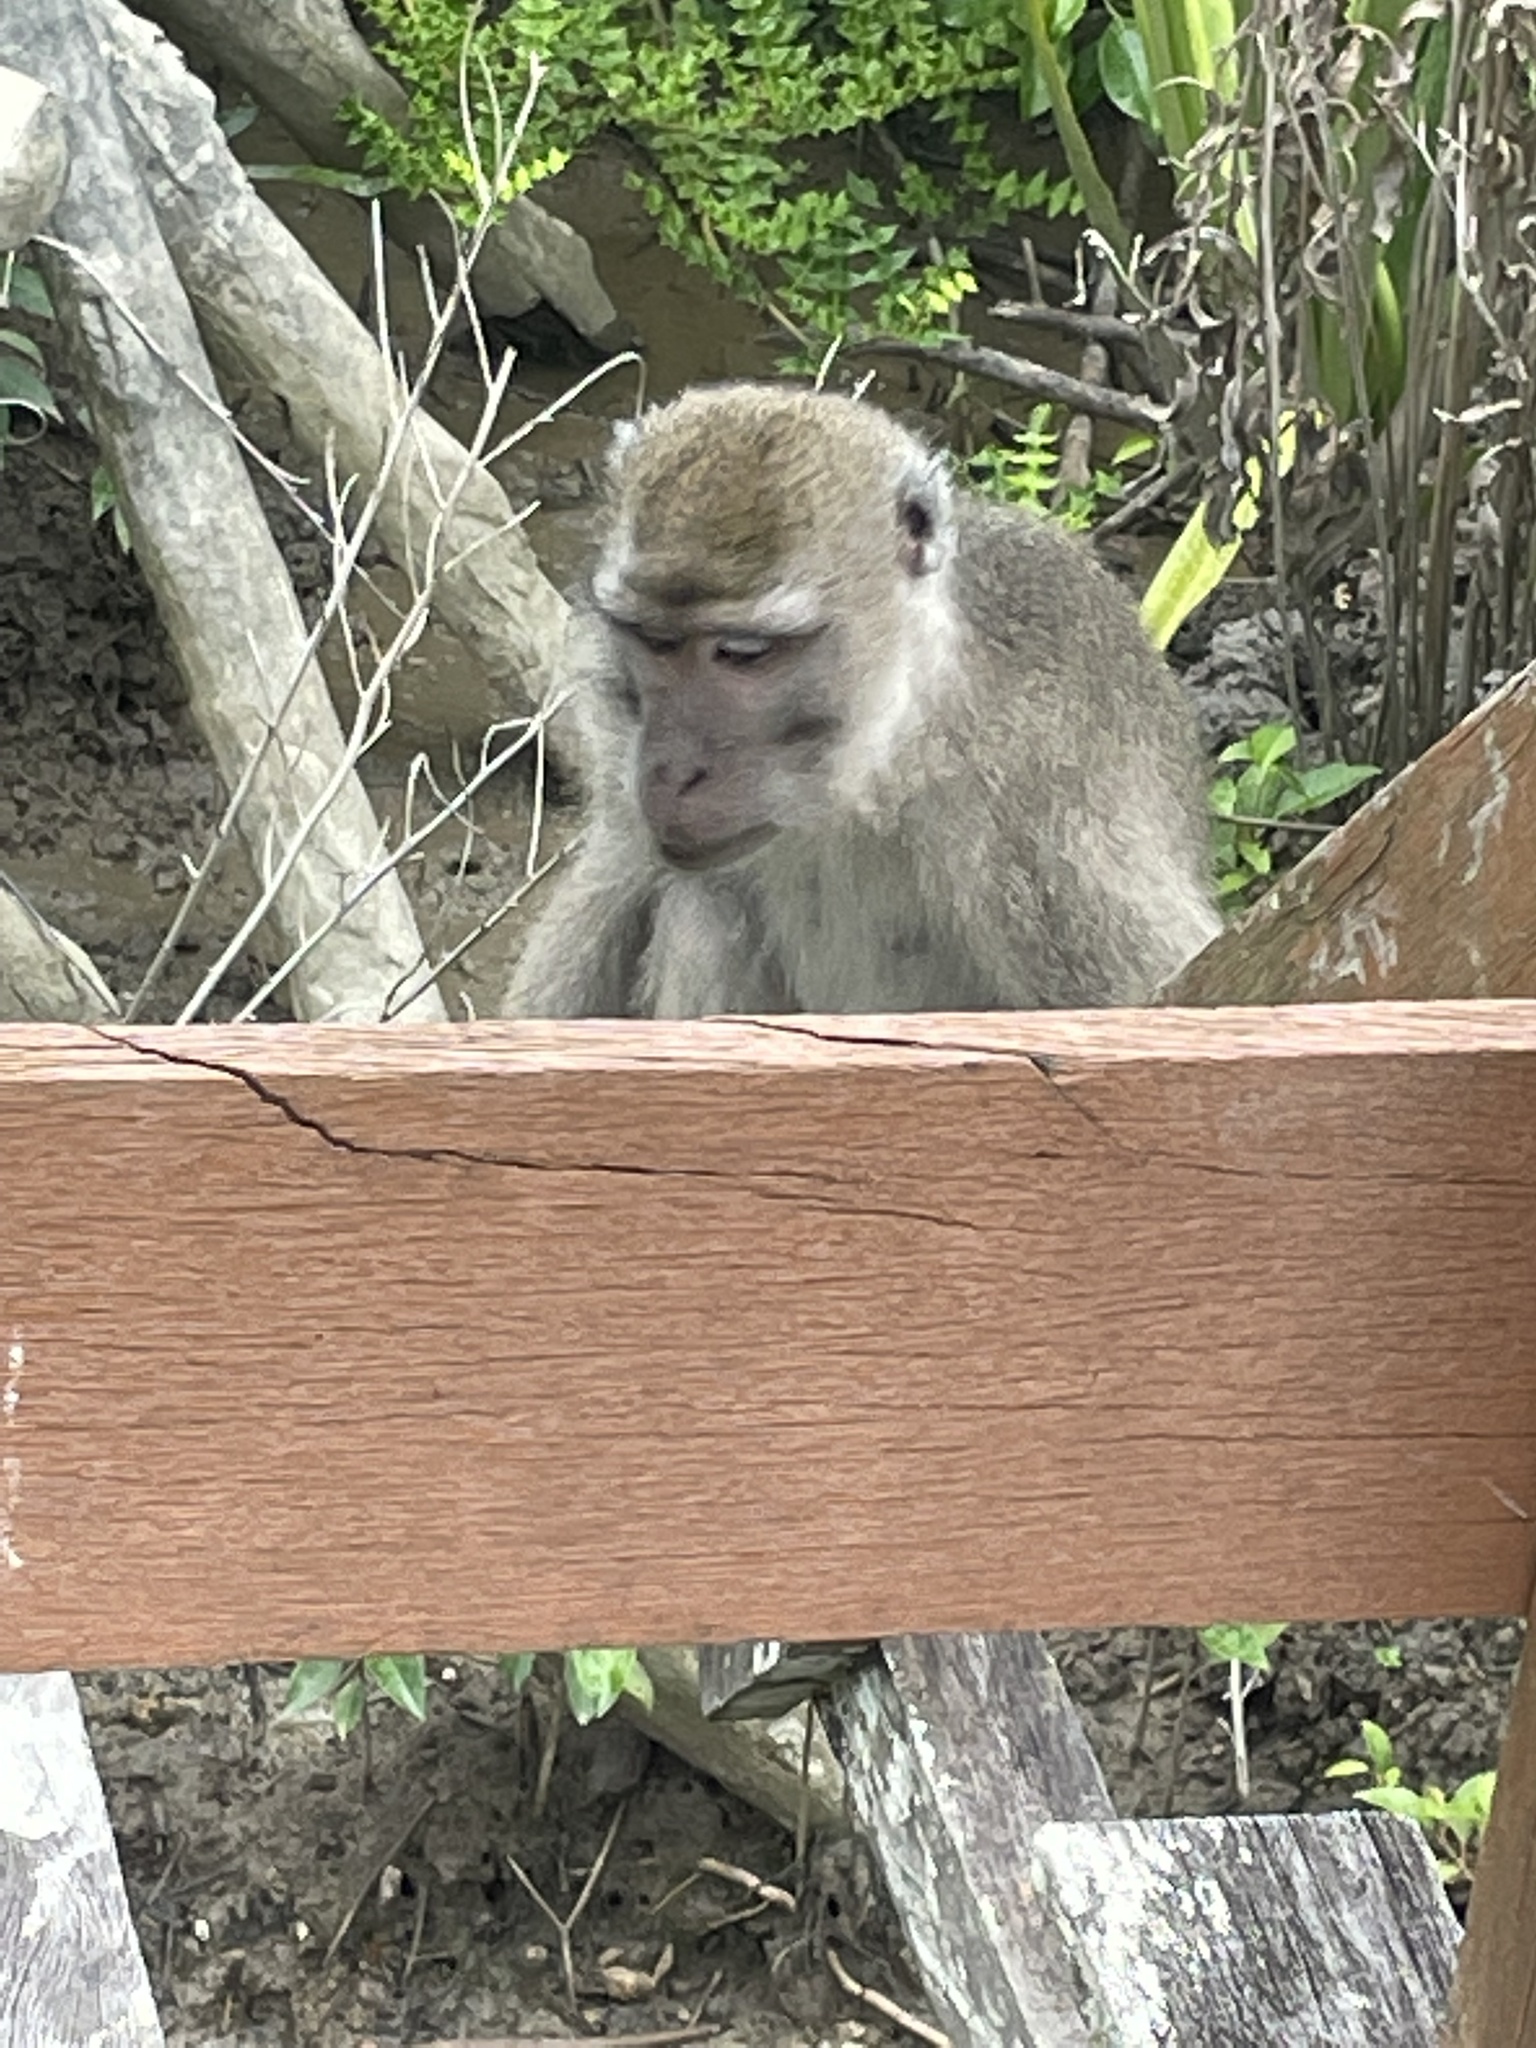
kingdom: Animalia
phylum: Chordata
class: Mammalia
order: Primates
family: Cercopithecidae
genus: Macaca
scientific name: Macaca fascicularis
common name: Crab-eating macaque
